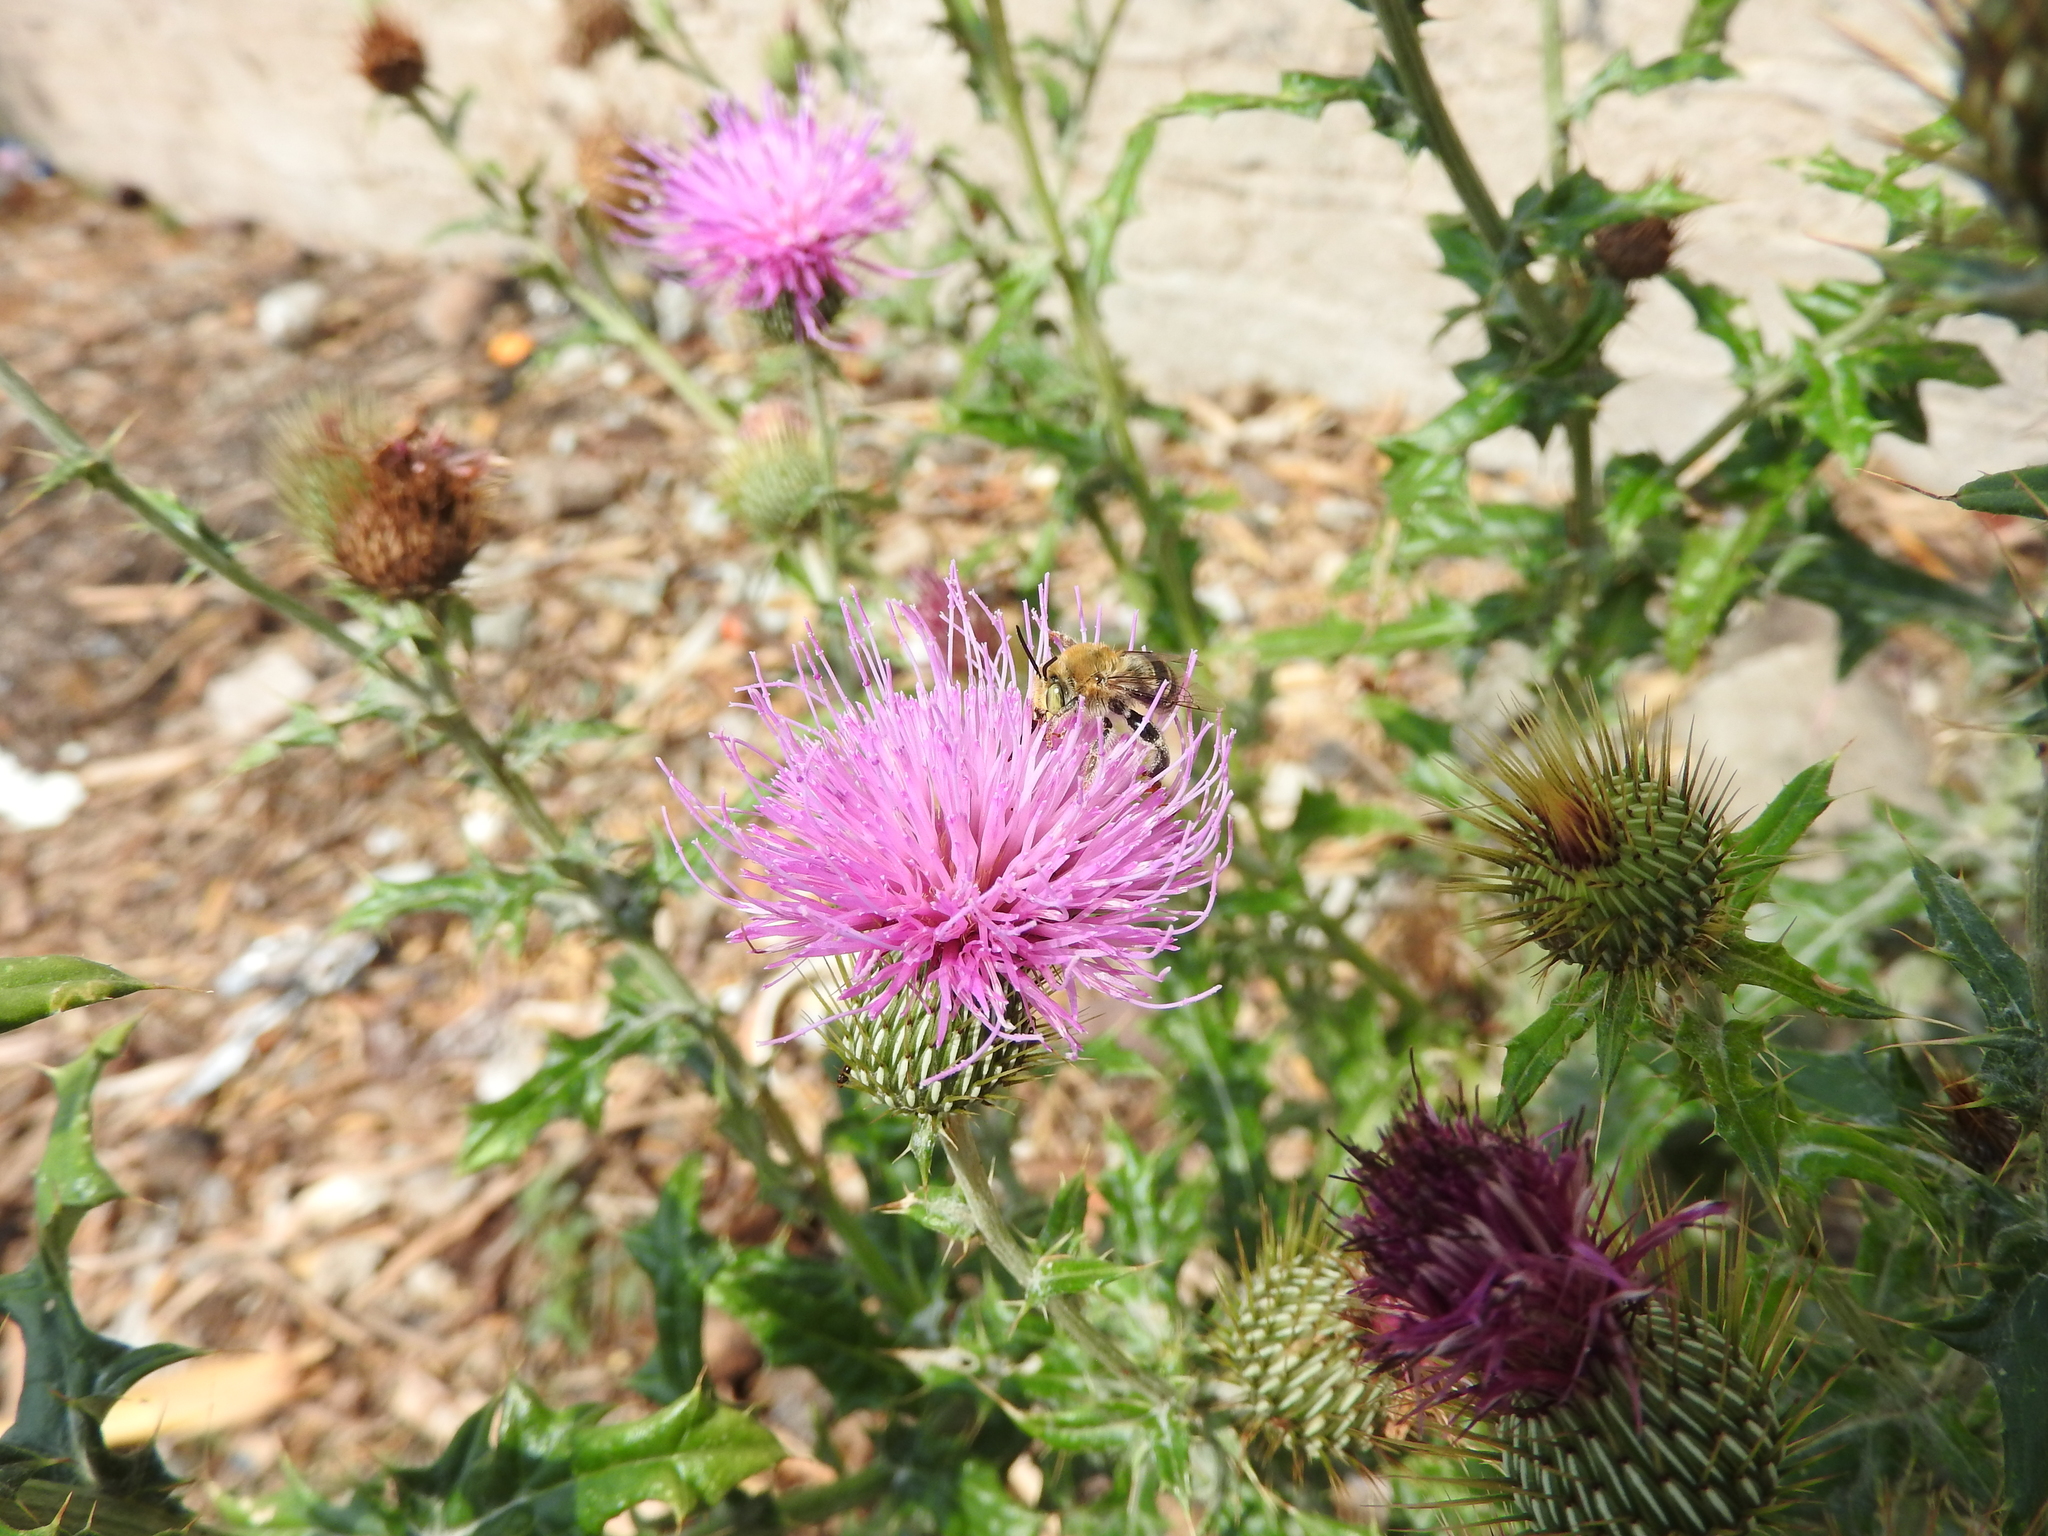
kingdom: Plantae
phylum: Tracheophyta
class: Magnoliopsida
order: Asterales
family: Asteraceae
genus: Cirsium
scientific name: Cirsium rhaphilepis
